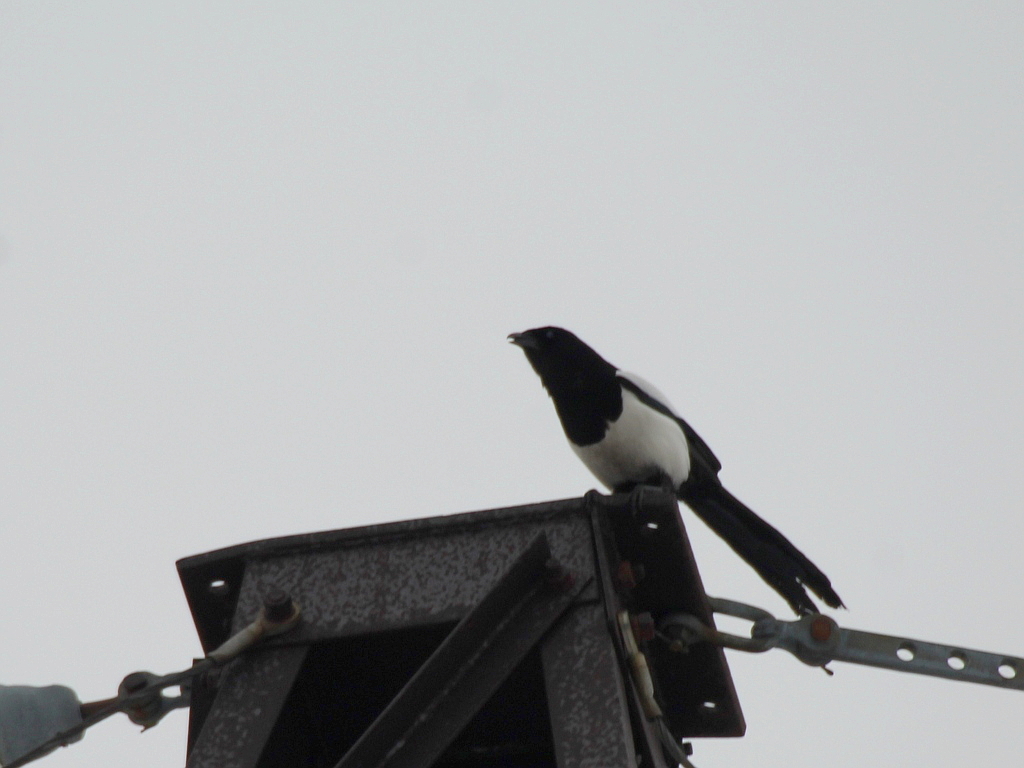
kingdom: Animalia
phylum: Chordata
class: Aves
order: Passeriformes
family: Corvidae
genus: Pica
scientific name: Pica pica
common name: Eurasian magpie
